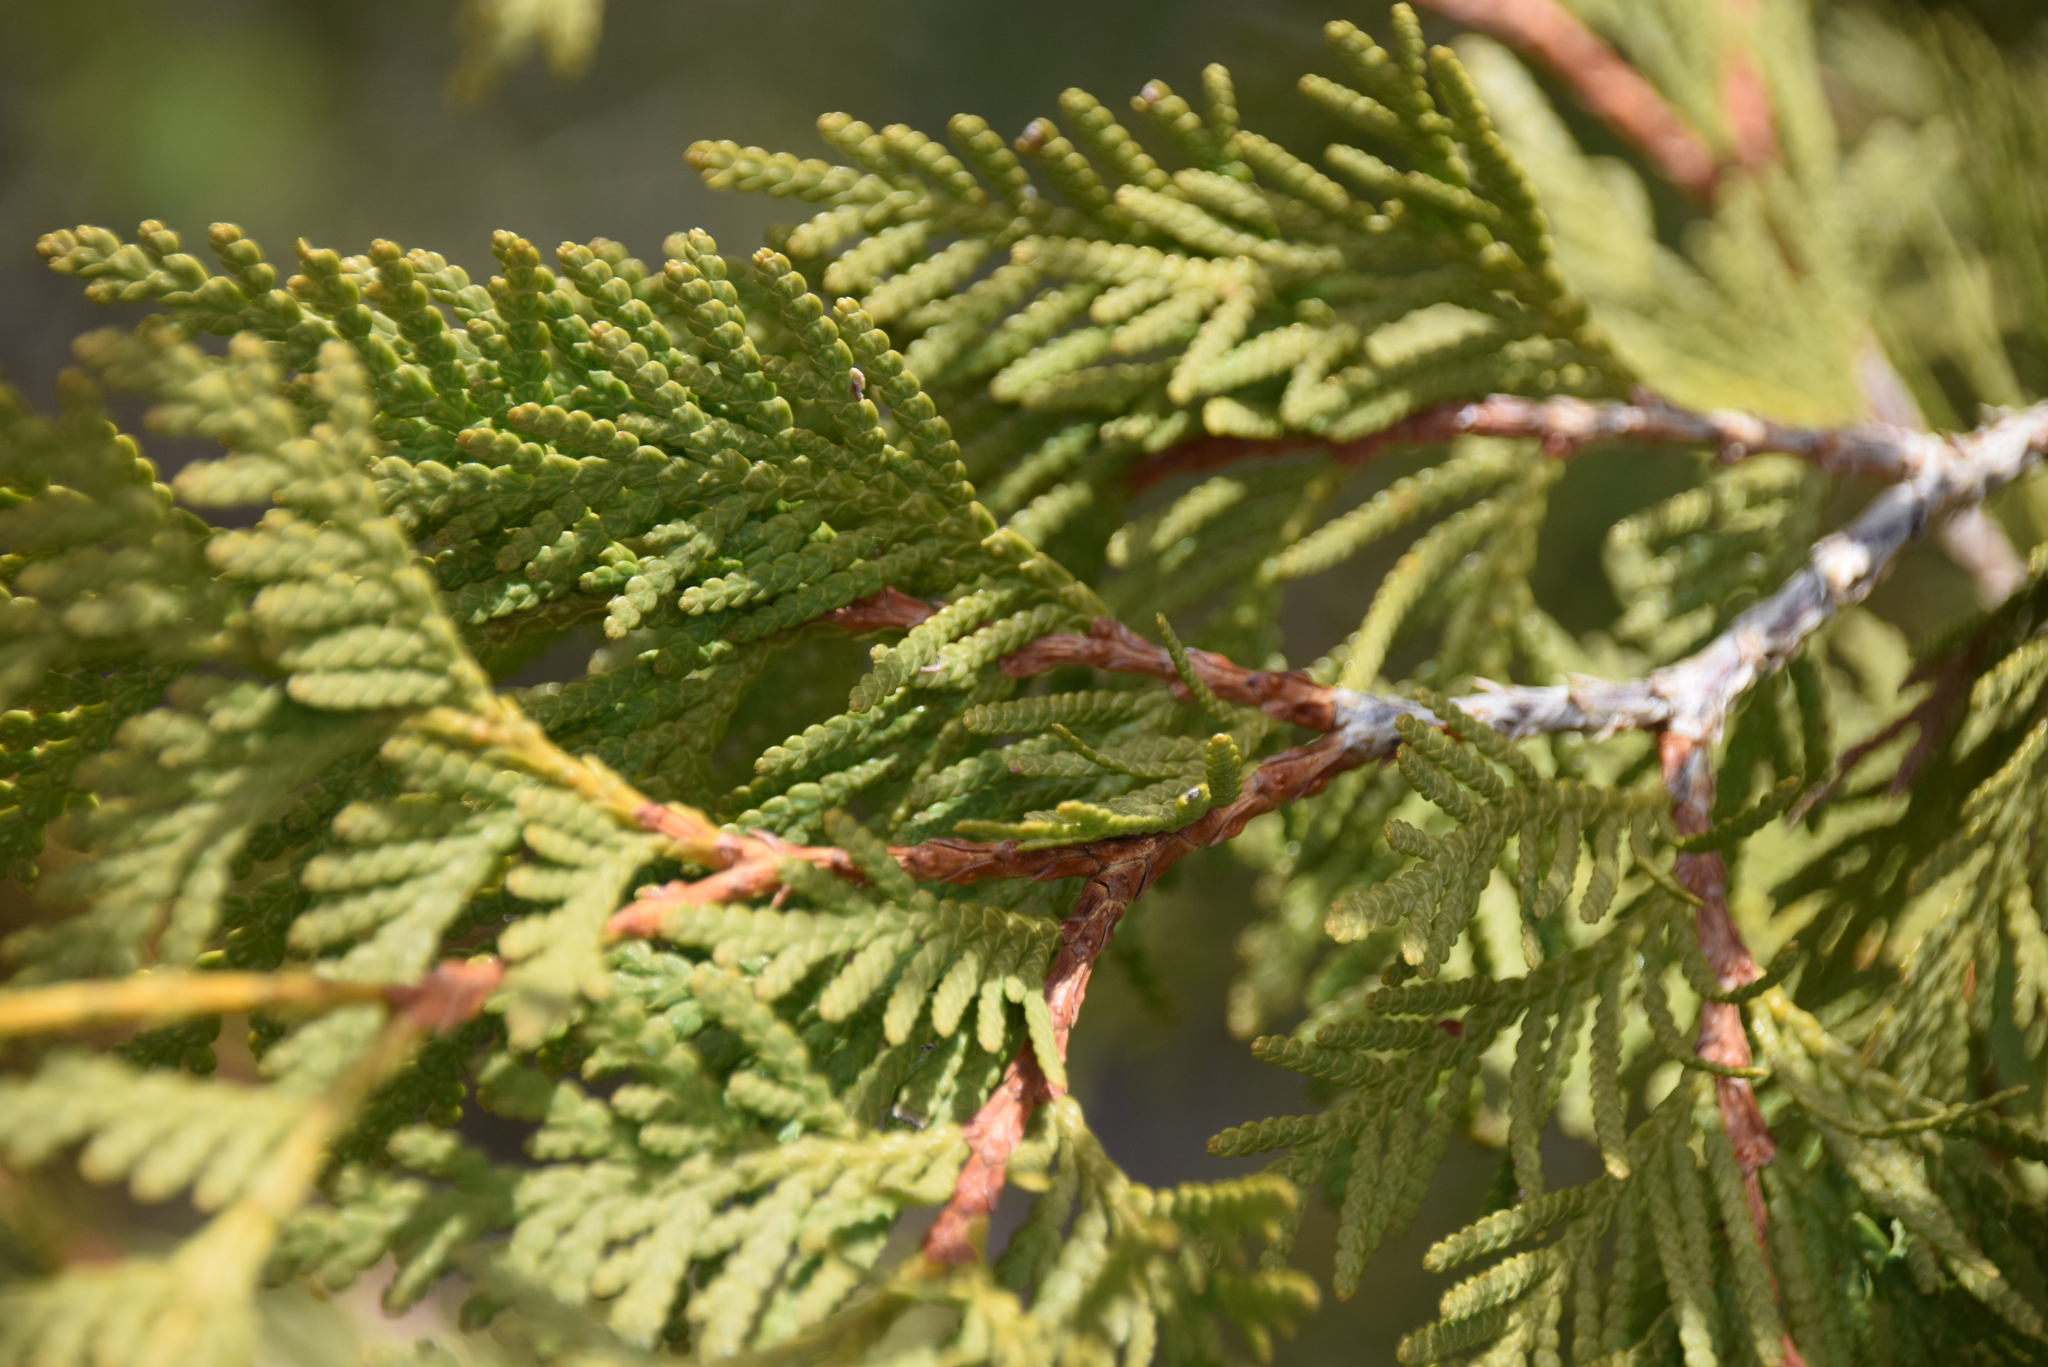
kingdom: Plantae
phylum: Tracheophyta
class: Pinopsida
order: Pinales
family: Cupressaceae
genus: Thuja
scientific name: Thuja occidentalis
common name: Northern white-cedar
